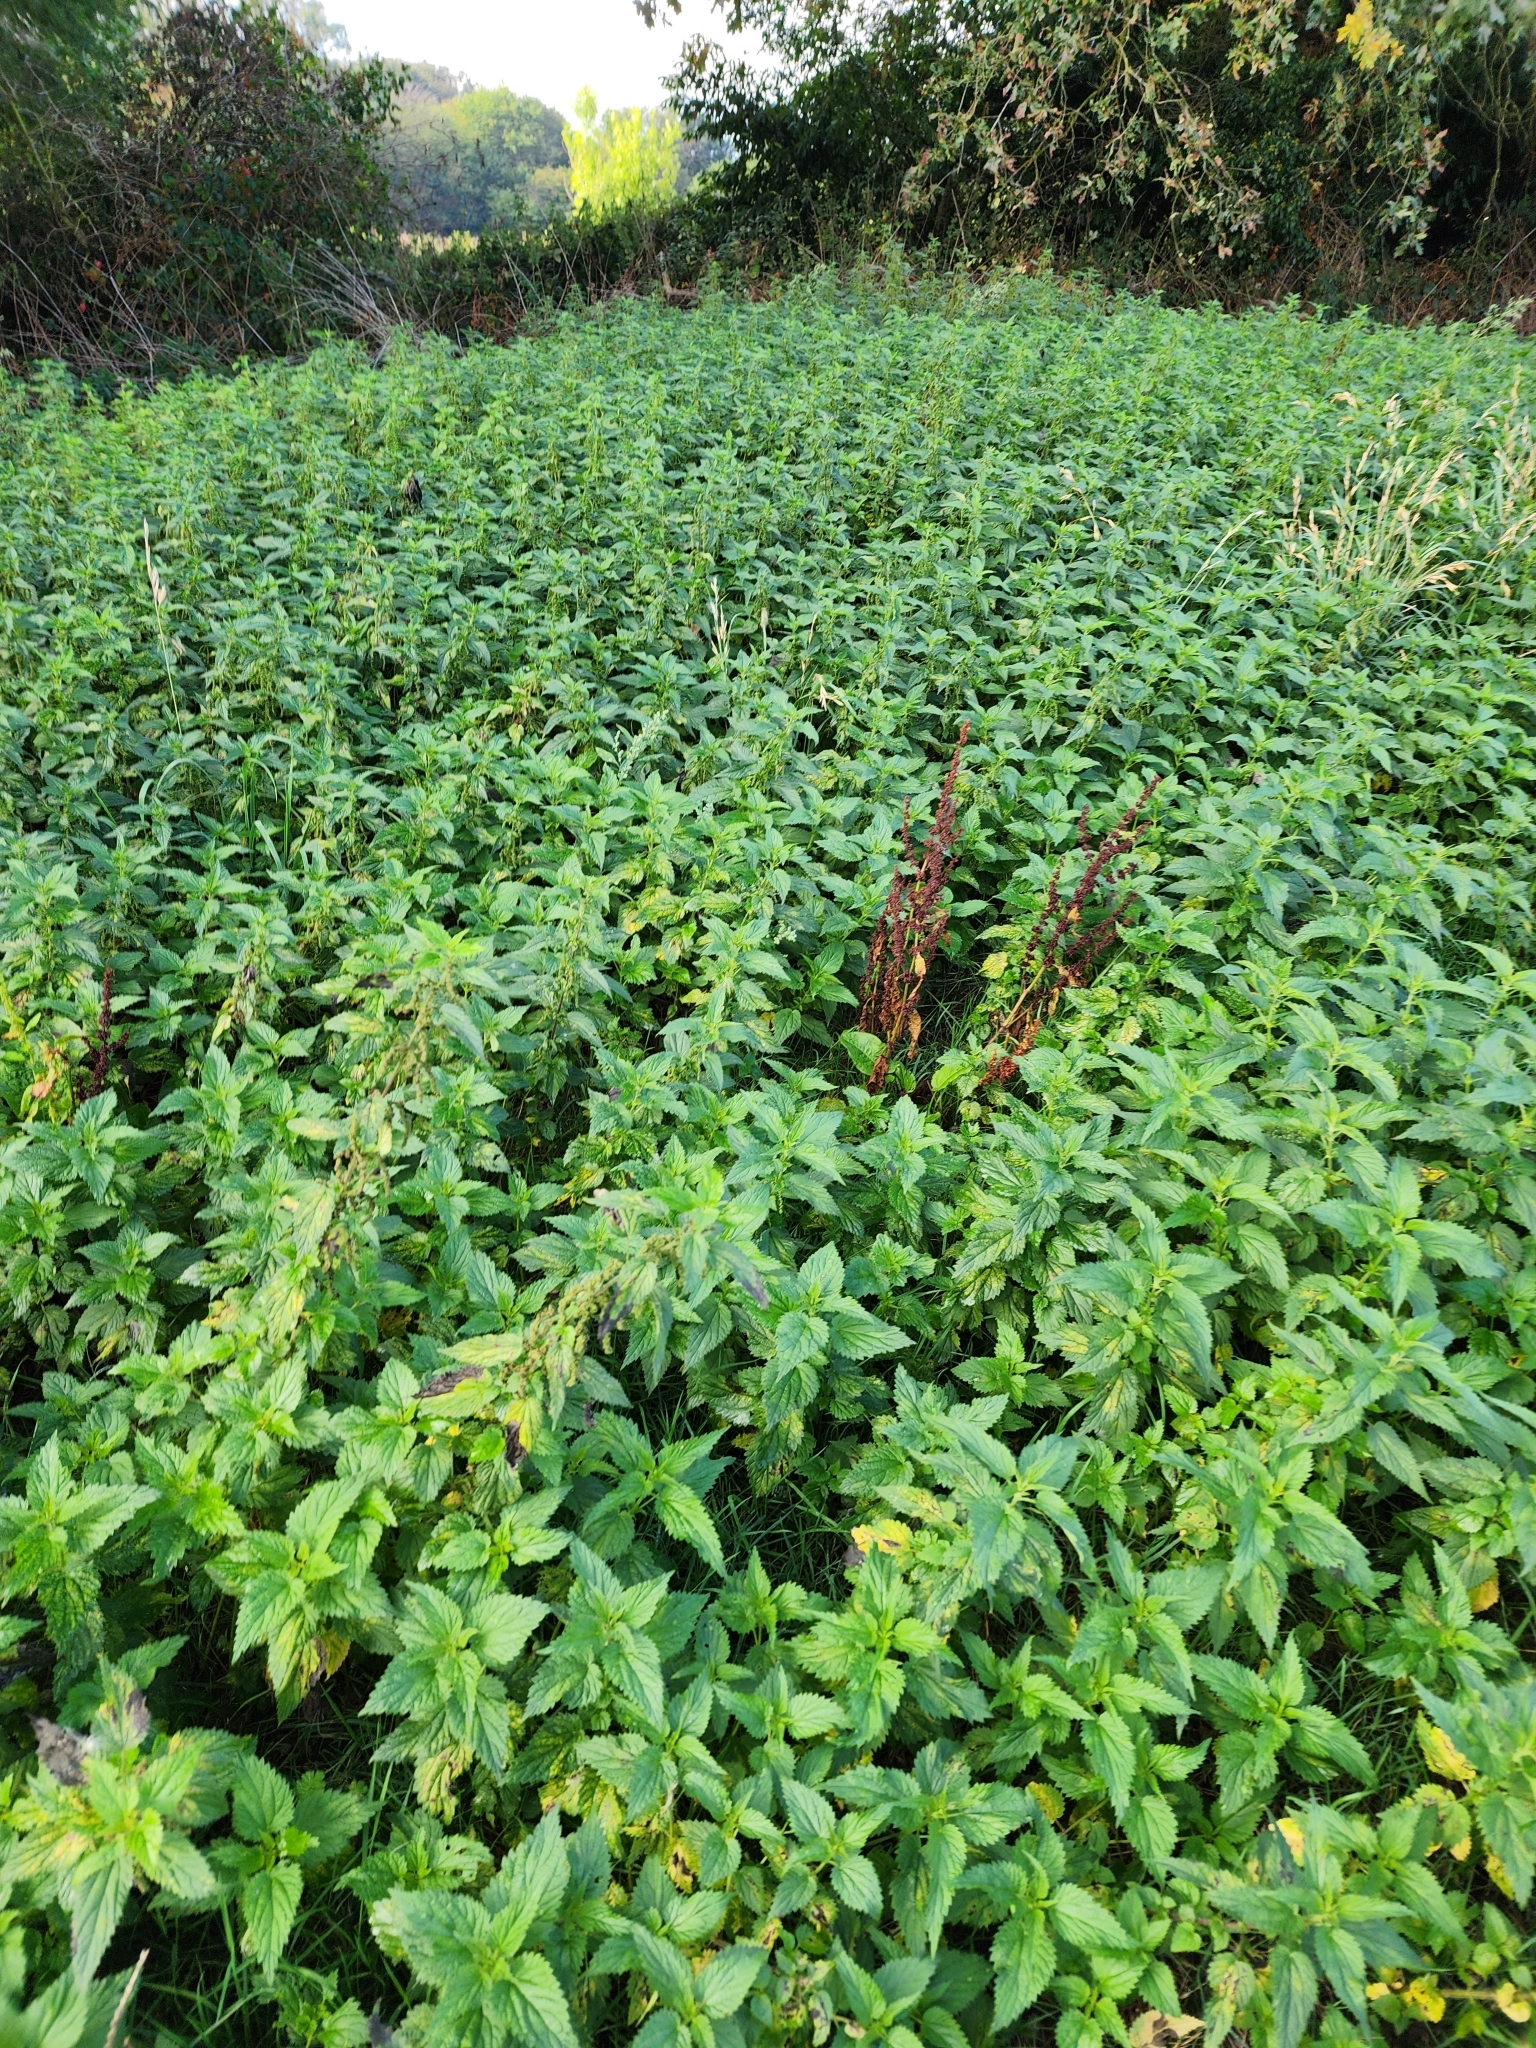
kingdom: Plantae
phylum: Tracheophyta
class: Magnoliopsida
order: Rosales
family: Urticaceae
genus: Urtica
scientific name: Urtica dioica
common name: Common nettle
